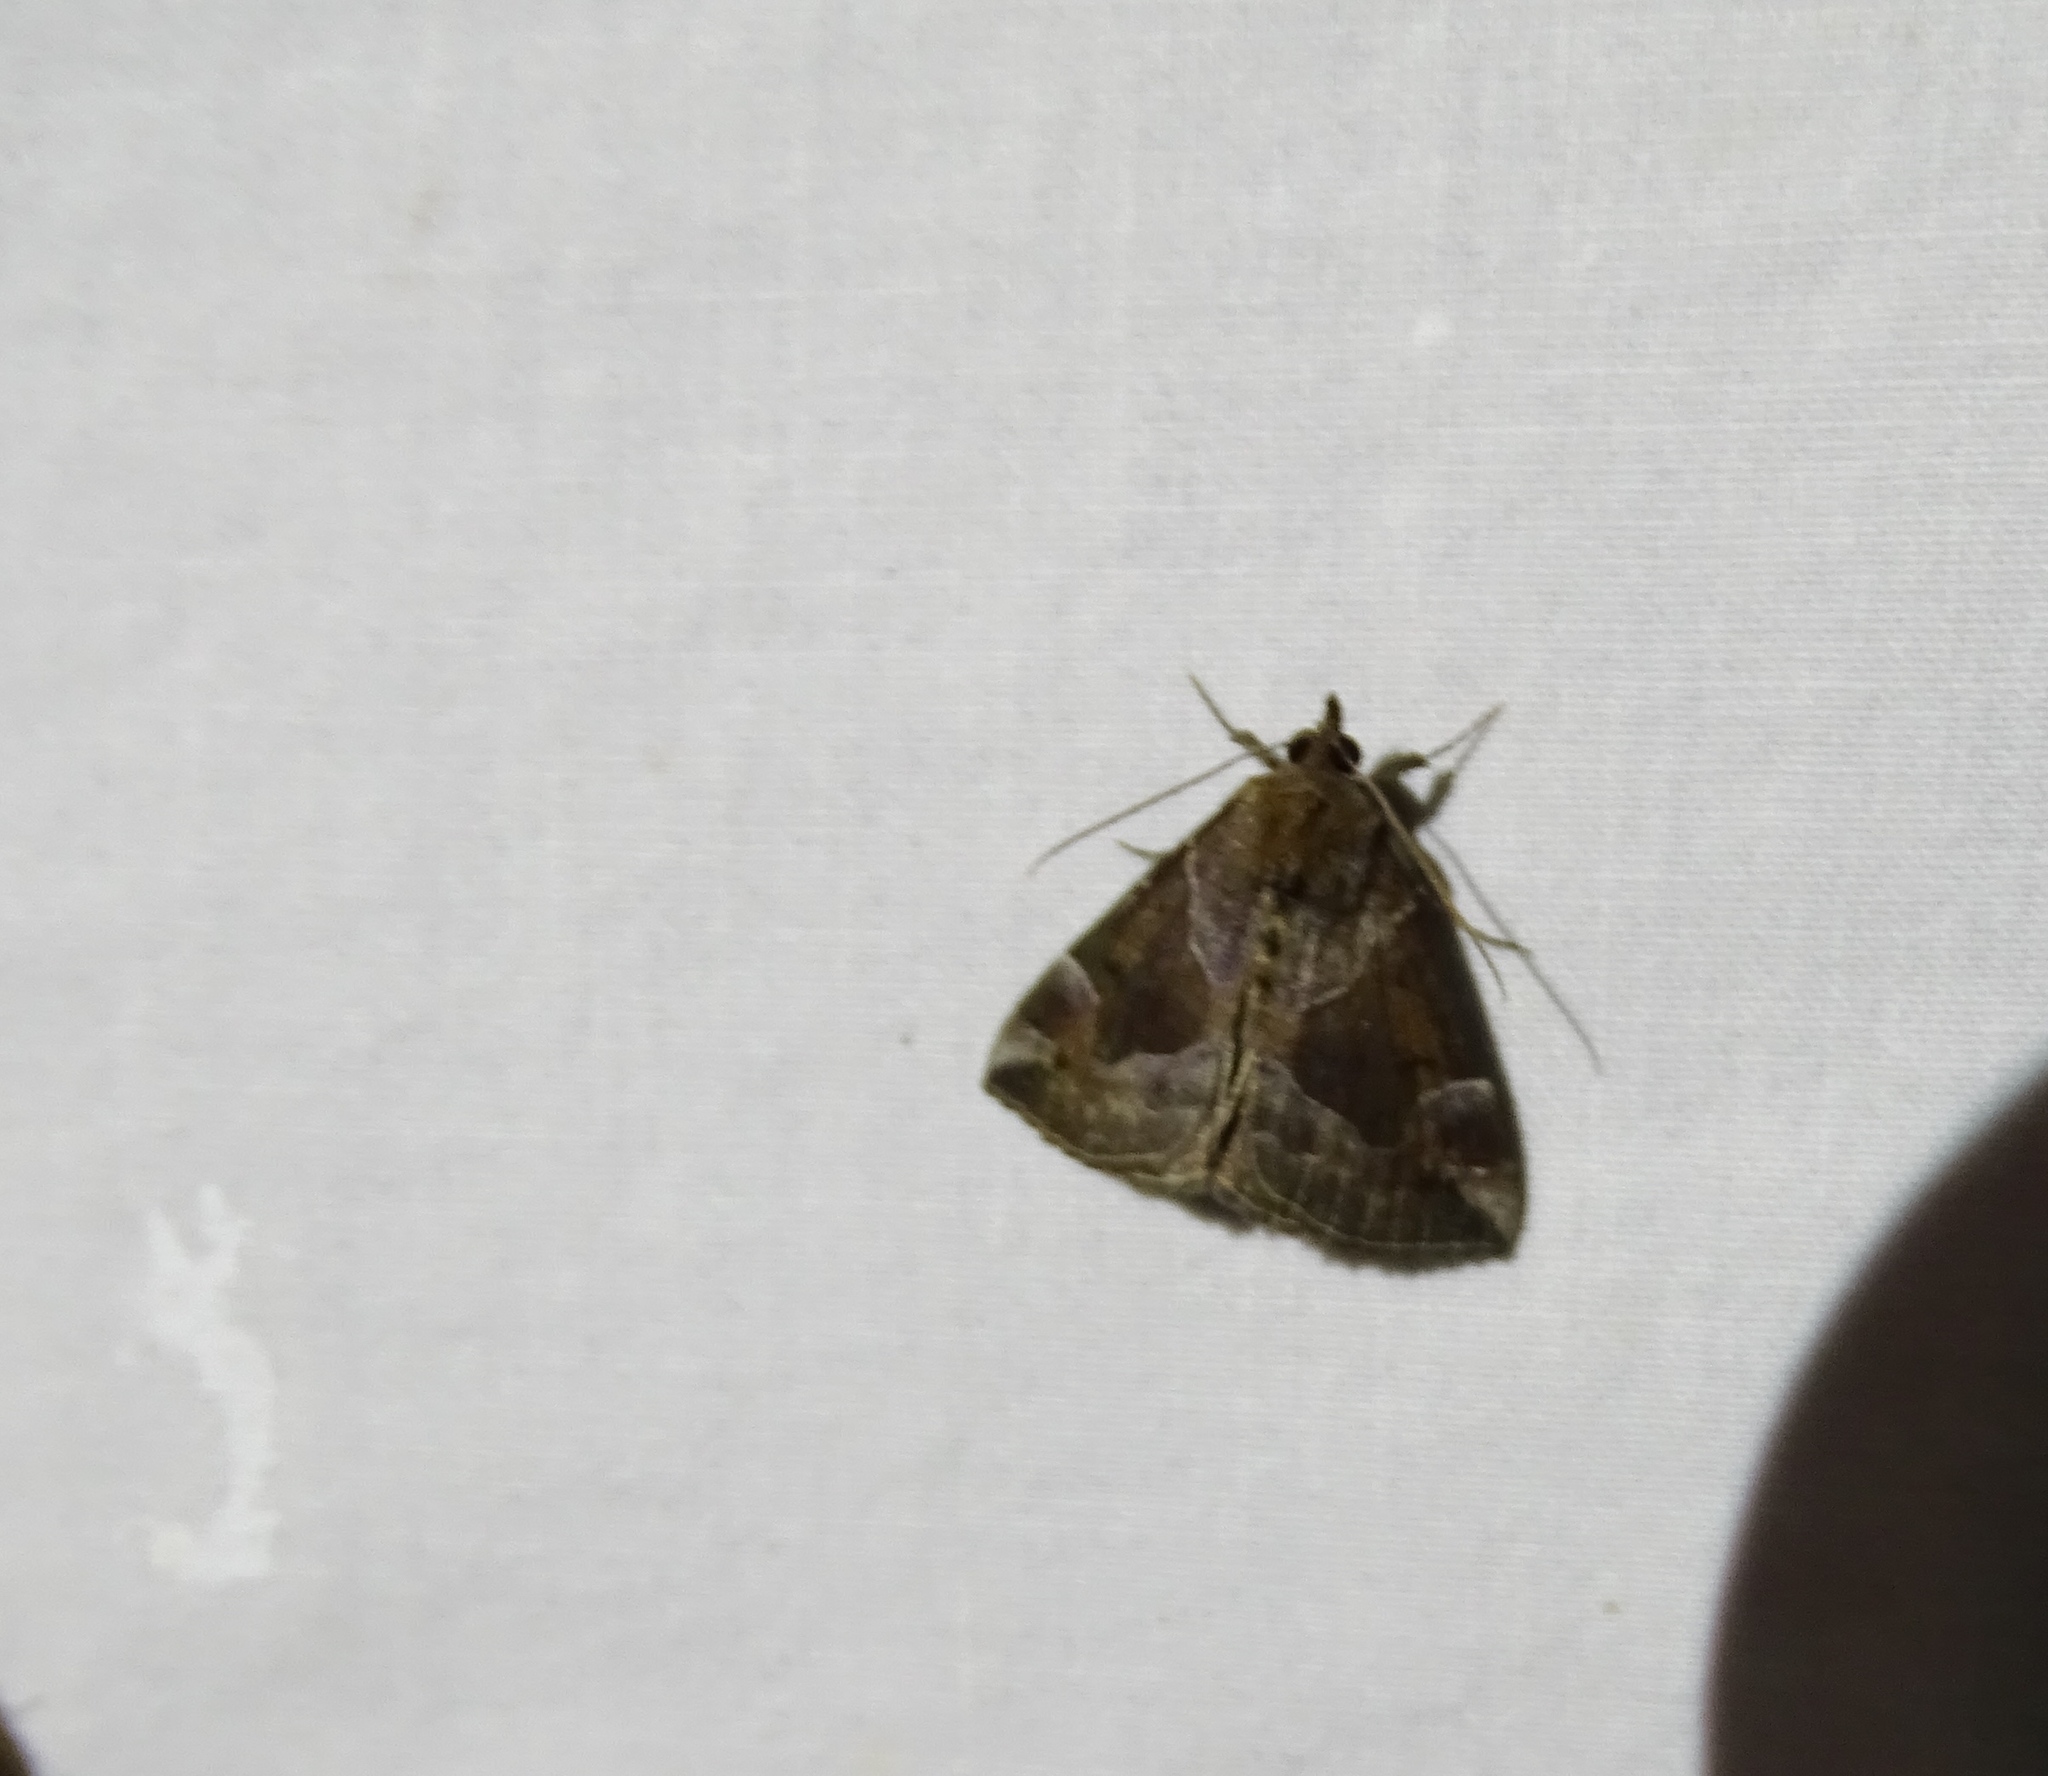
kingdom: Animalia
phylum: Arthropoda
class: Insecta
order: Lepidoptera
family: Erebidae
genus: Hypena
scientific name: Hypena manalis
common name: Flowing-line bomolocha moth
